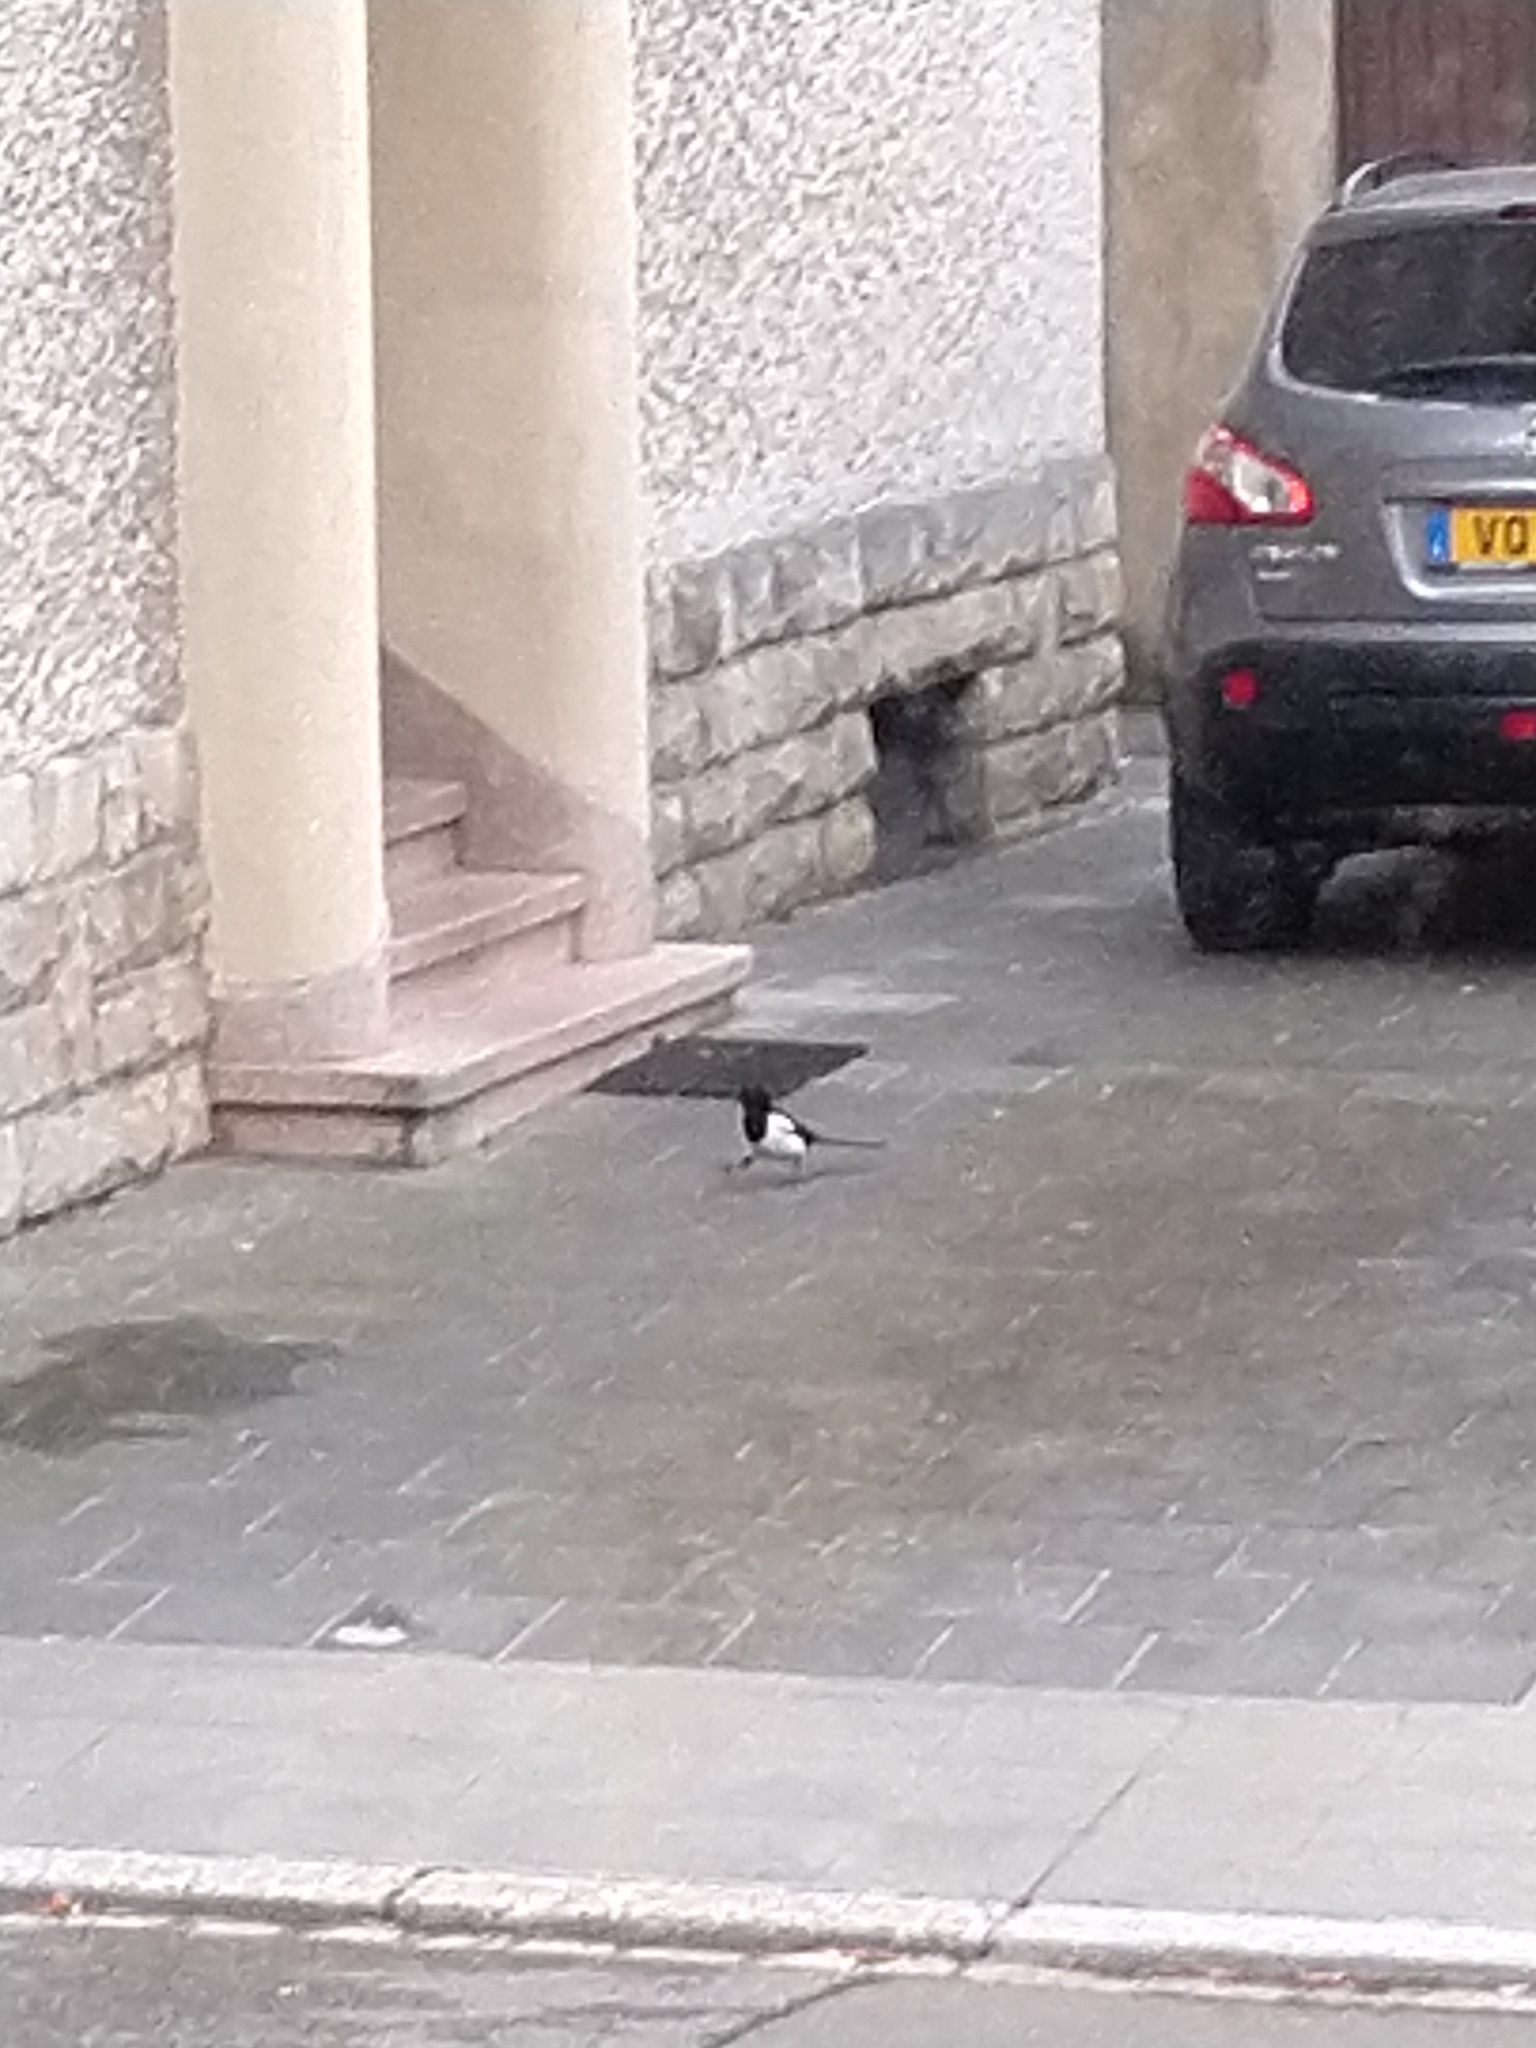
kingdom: Animalia
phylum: Chordata
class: Aves
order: Passeriformes
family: Corvidae
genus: Pica
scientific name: Pica pica
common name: Eurasian magpie
